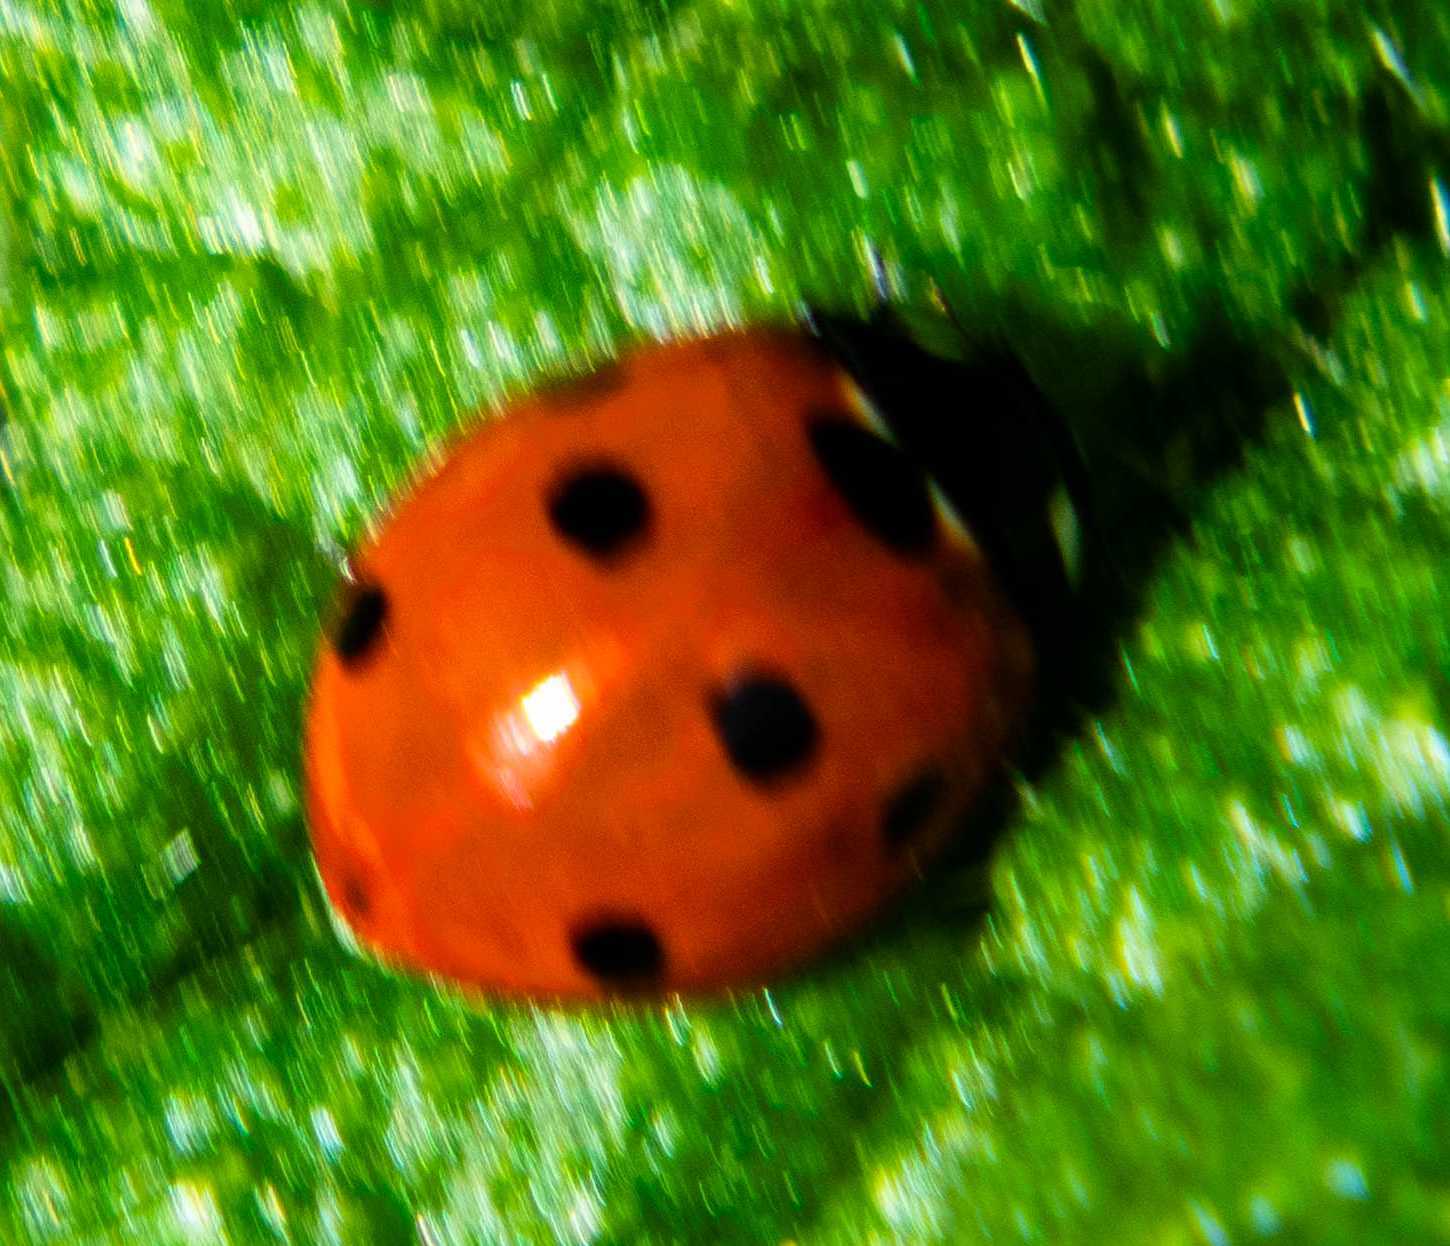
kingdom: Animalia
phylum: Arthropoda
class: Insecta
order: Coleoptera
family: Coccinellidae
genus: Coccinella
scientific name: Coccinella septempunctata
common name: Sevenspotted lady beetle
